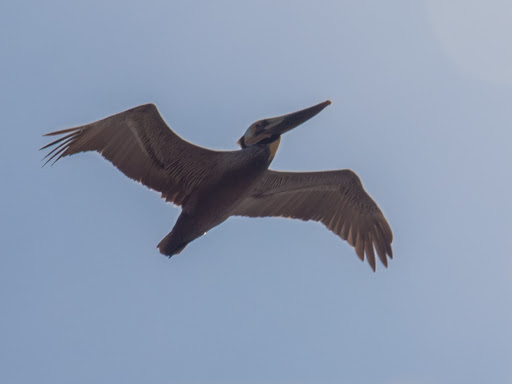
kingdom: Animalia
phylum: Chordata
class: Aves
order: Pelecaniformes
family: Pelecanidae
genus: Pelecanus
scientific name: Pelecanus occidentalis
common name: Brown pelican
